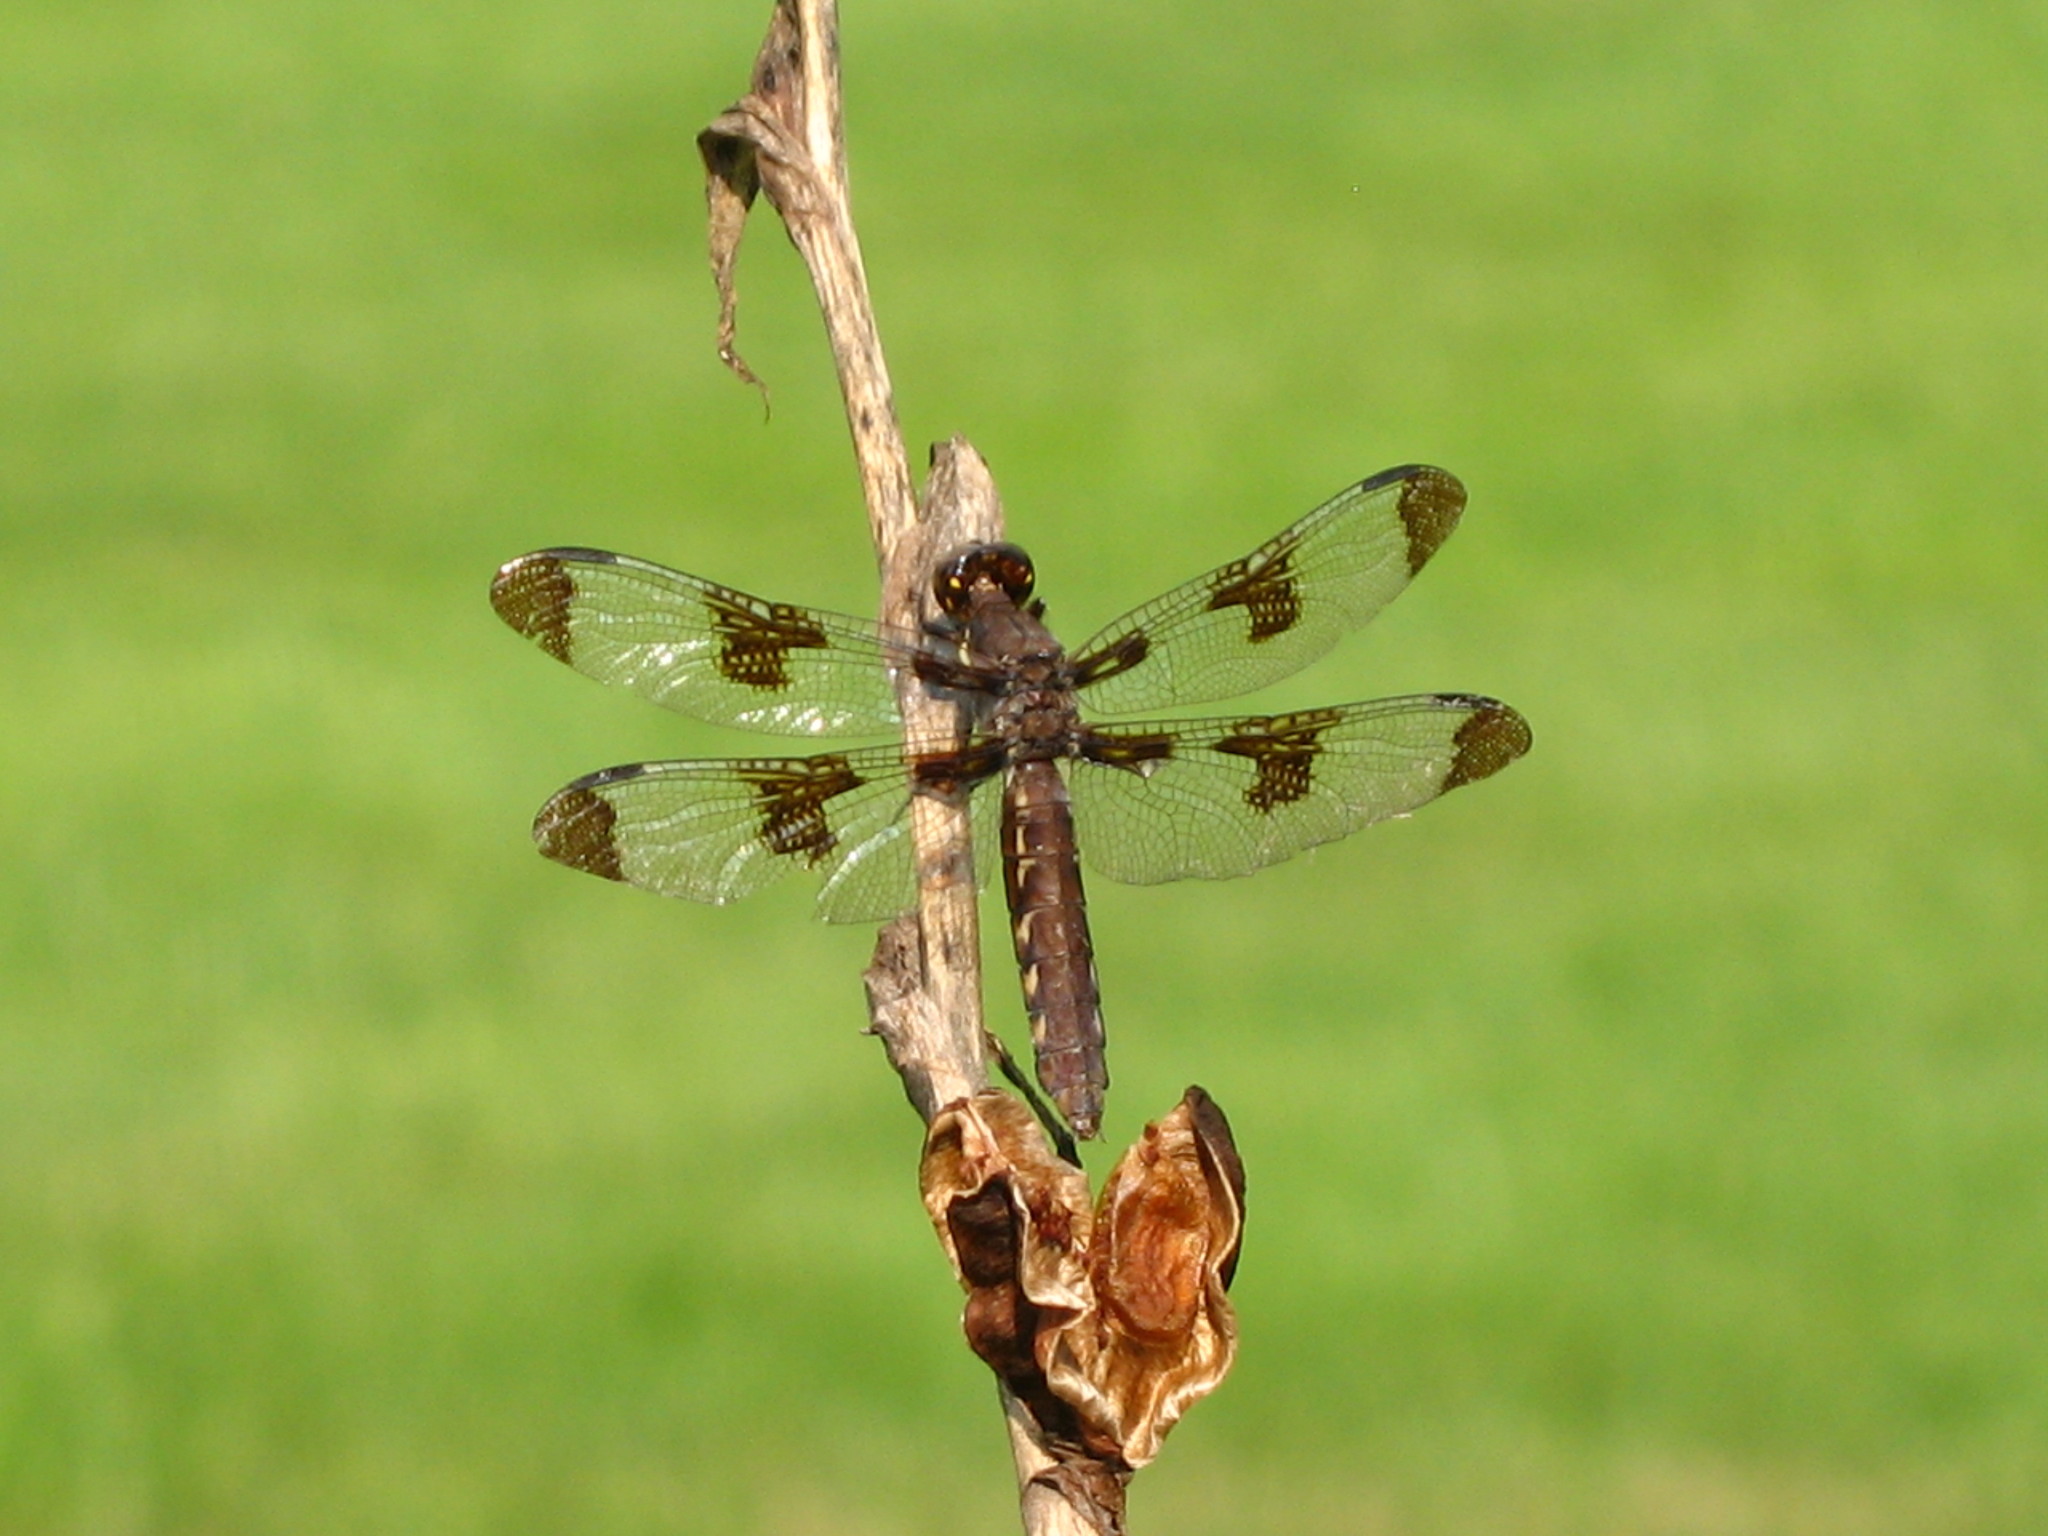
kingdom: Animalia
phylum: Arthropoda
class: Insecta
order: Odonata
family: Libellulidae
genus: Plathemis
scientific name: Plathemis lydia
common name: Common whitetail
